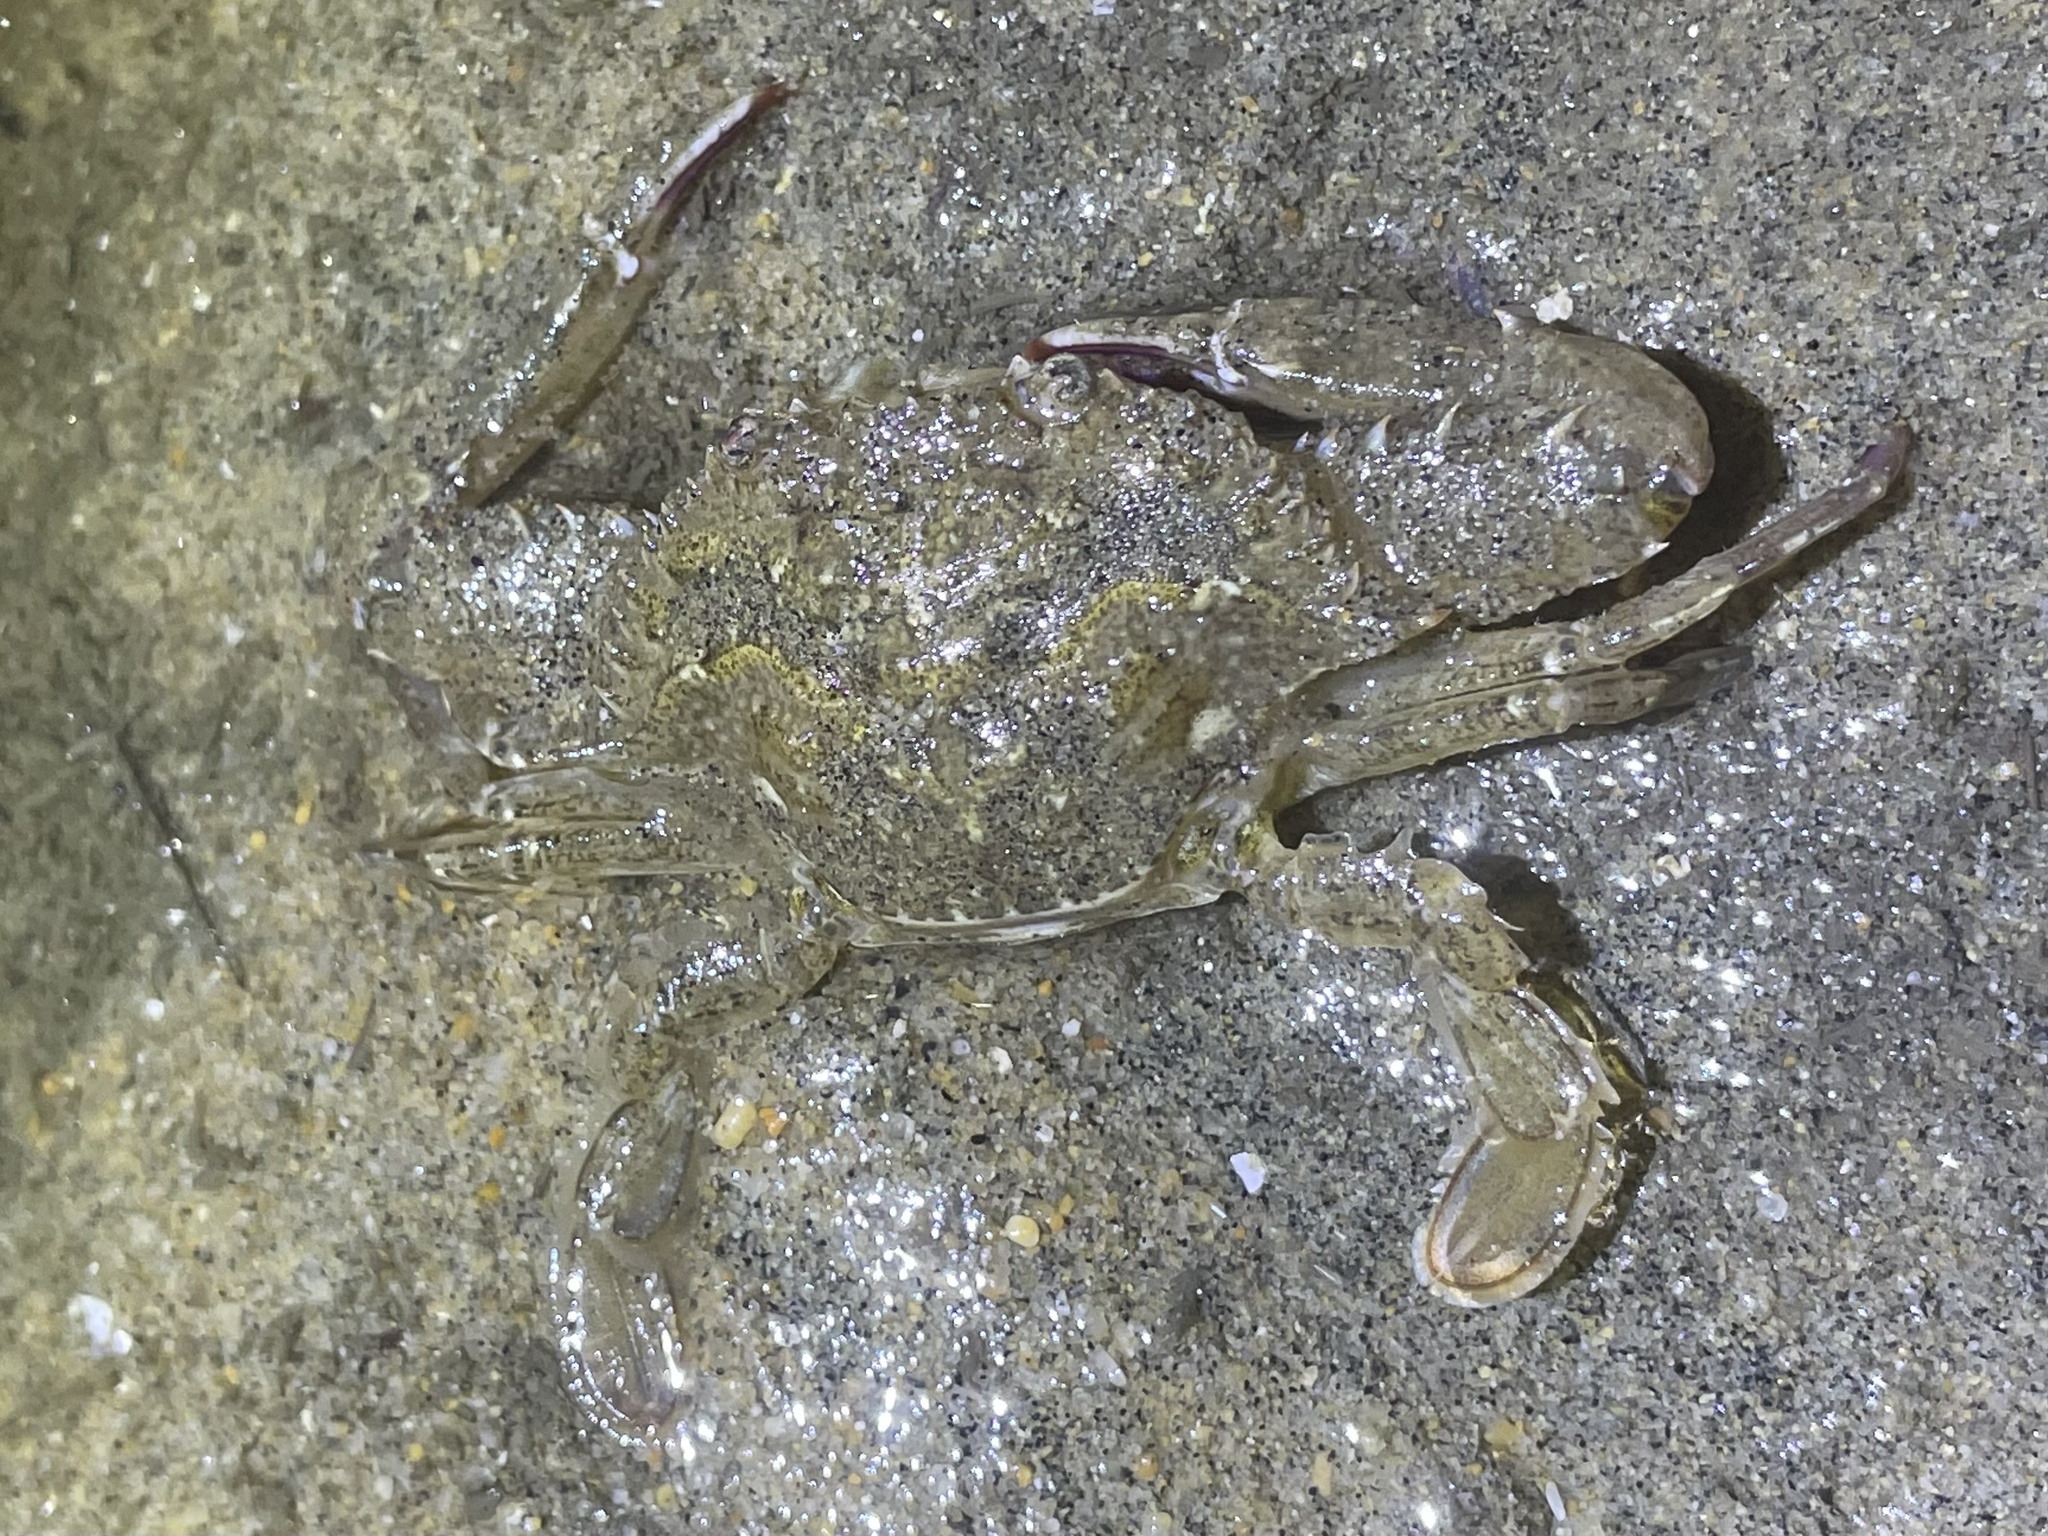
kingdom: Animalia
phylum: Arthropoda
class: Malacostraca
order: Decapoda
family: Portunidae
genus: Achelous
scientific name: Achelous xantusii
